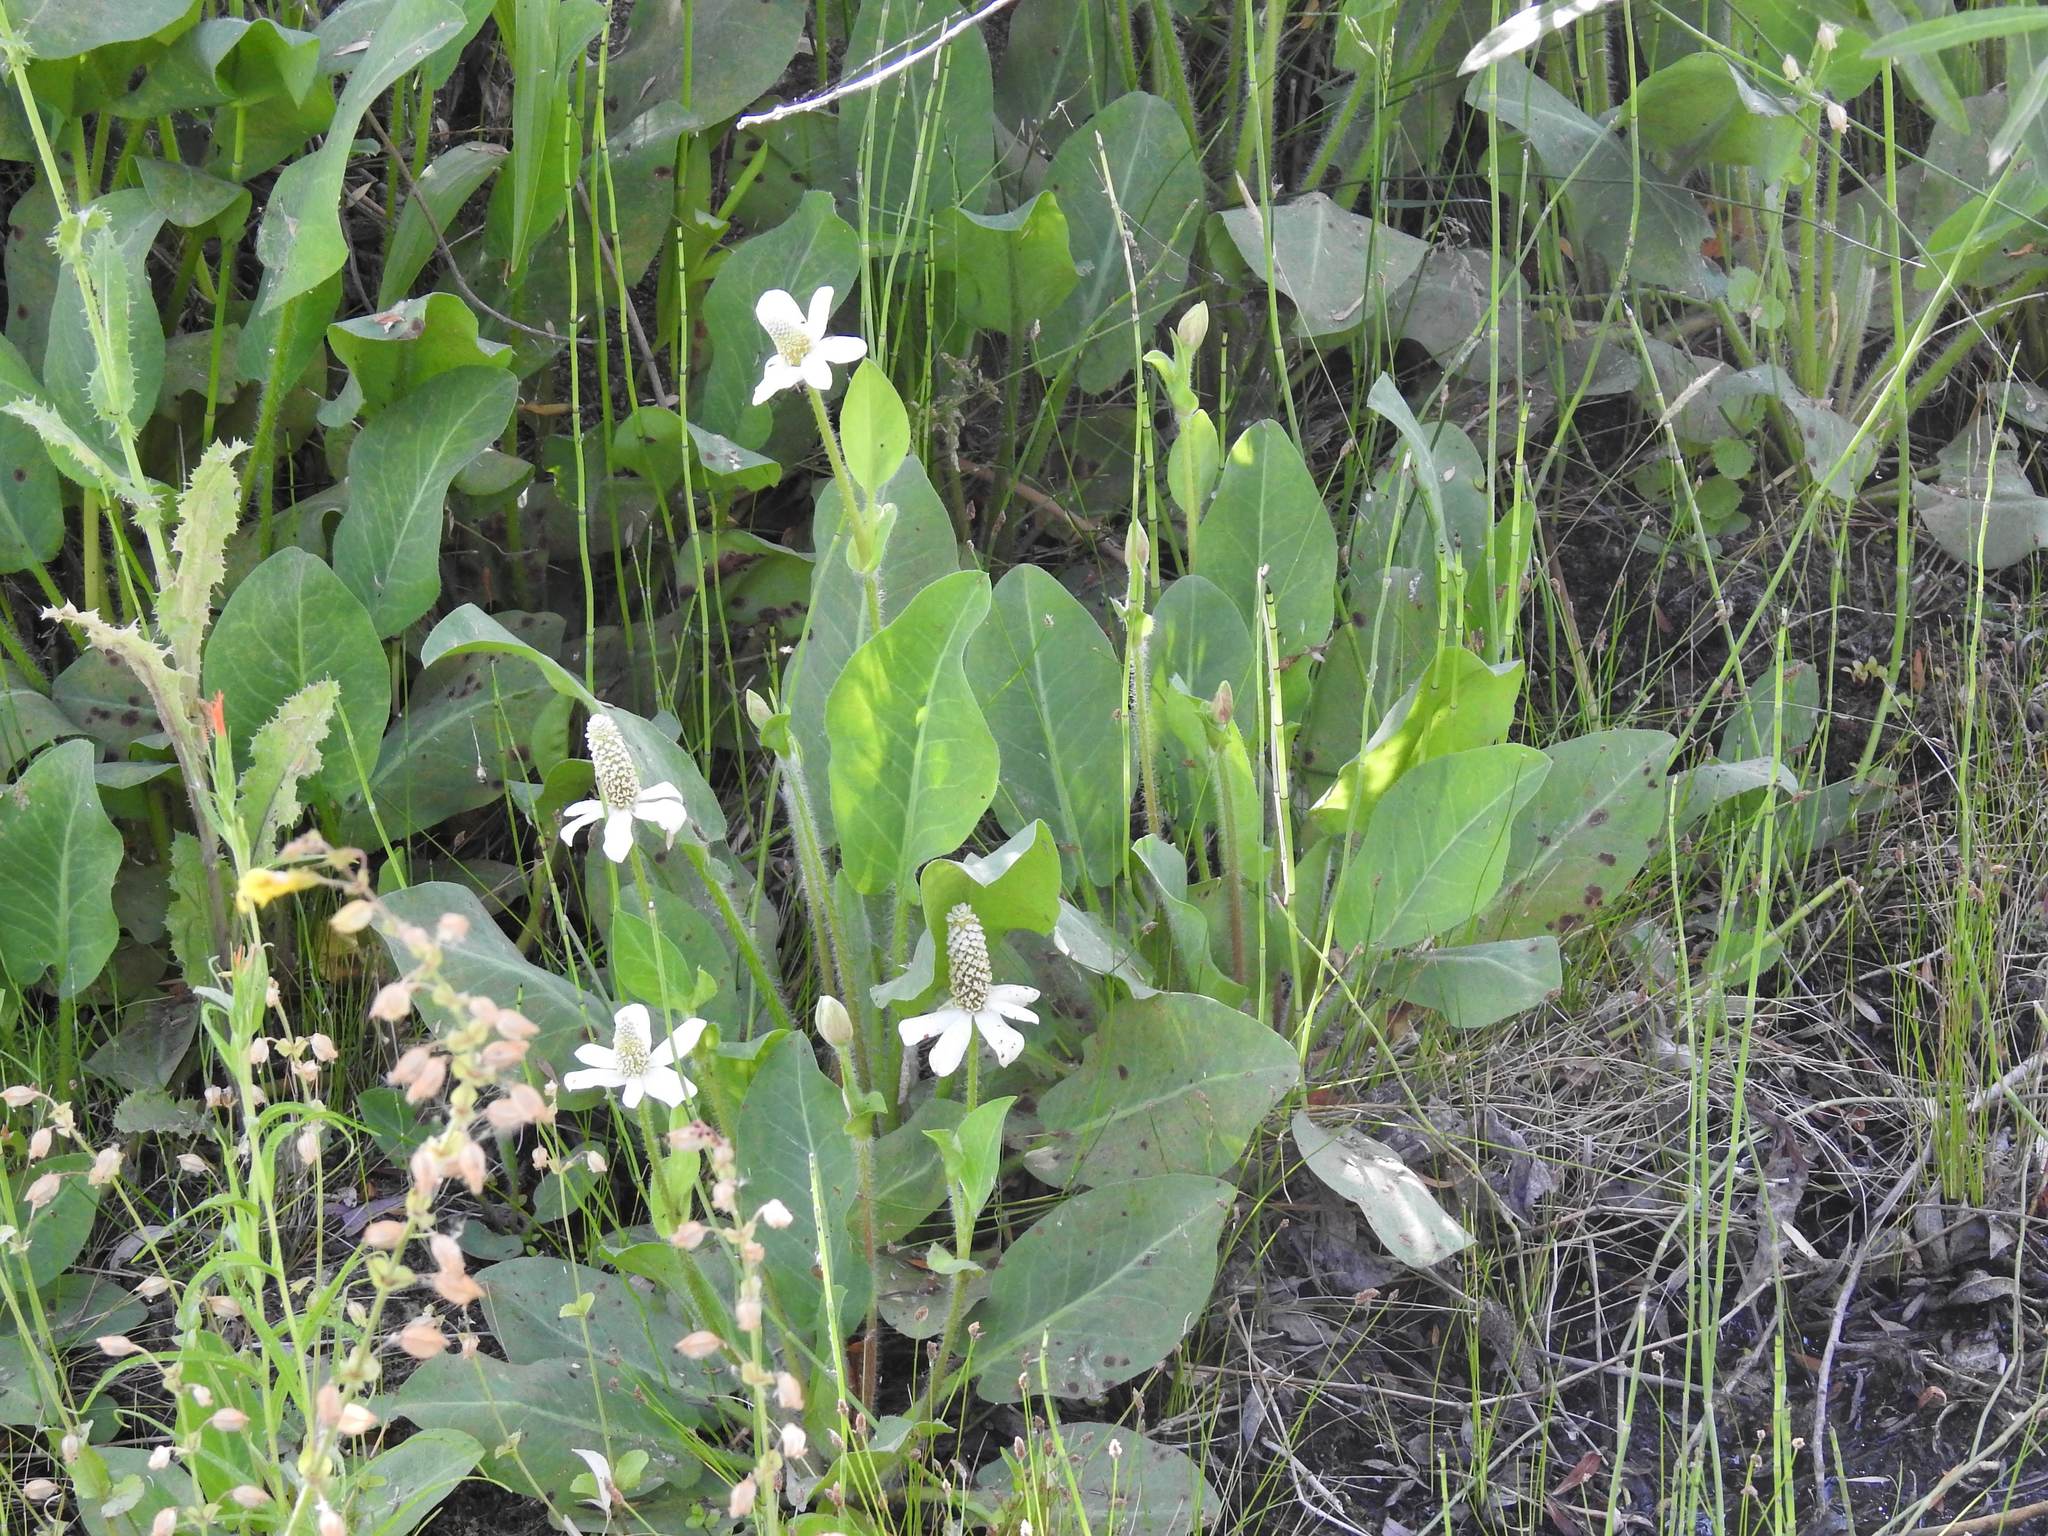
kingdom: Plantae
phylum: Tracheophyta
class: Magnoliopsida
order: Piperales
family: Saururaceae
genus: Anemopsis
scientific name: Anemopsis californica
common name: Apache-beads
